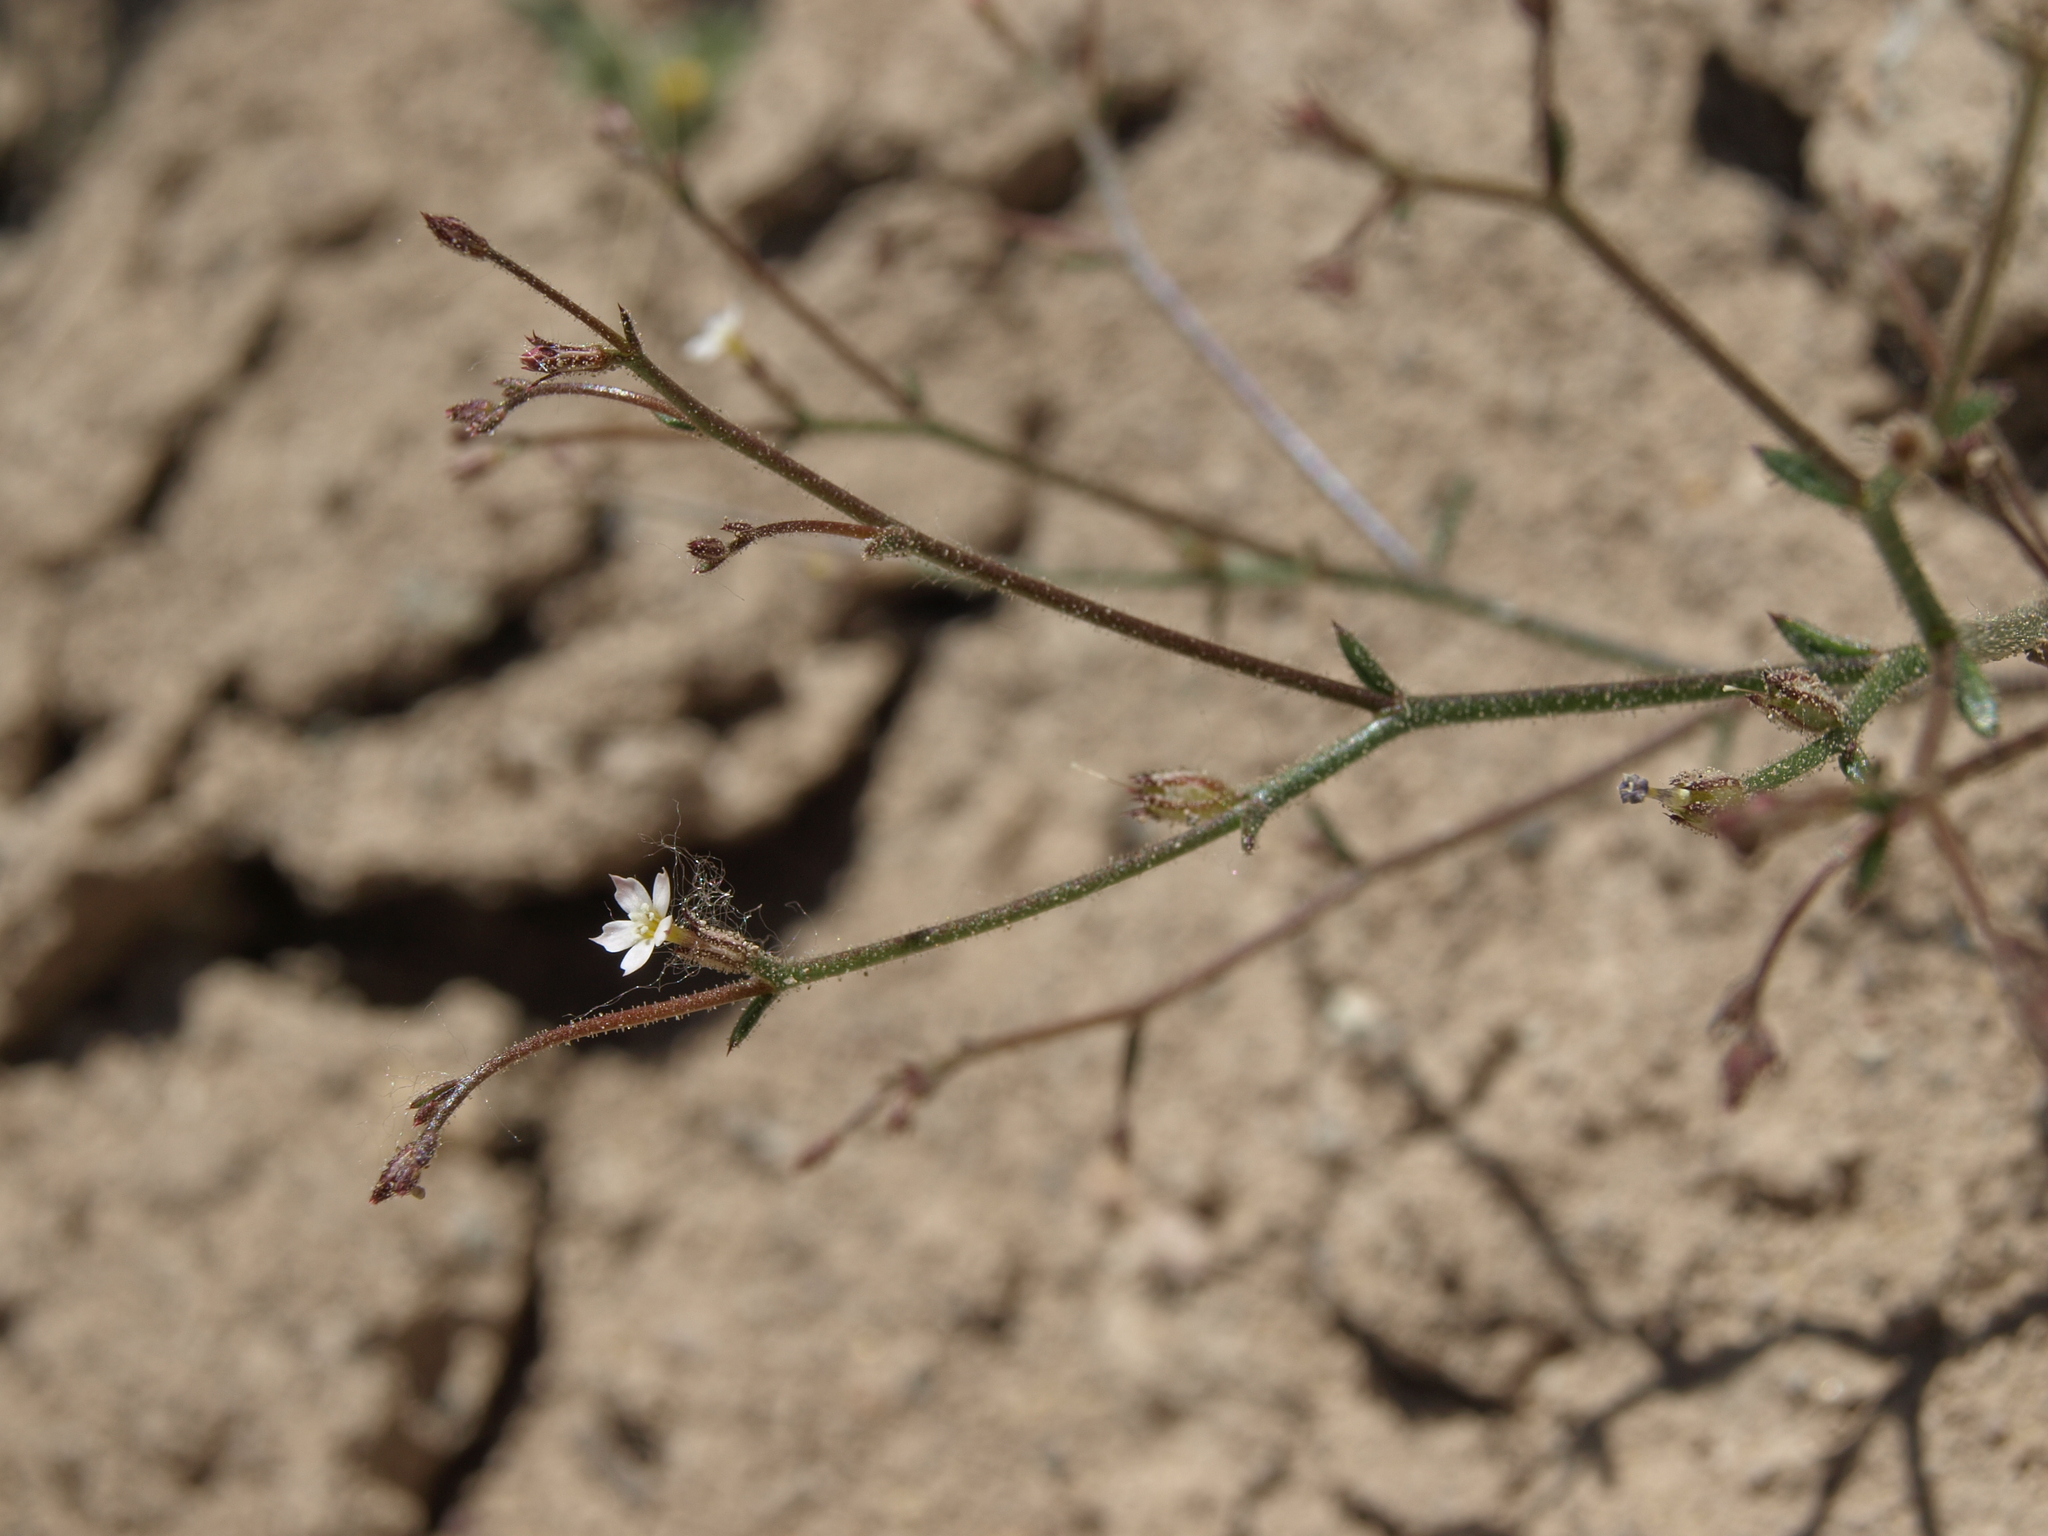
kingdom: Plantae
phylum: Tracheophyta
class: Magnoliopsida
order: Ericales
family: Polemoniaceae
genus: Aliciella
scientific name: Aliciella leptomeria
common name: Sand gilia
